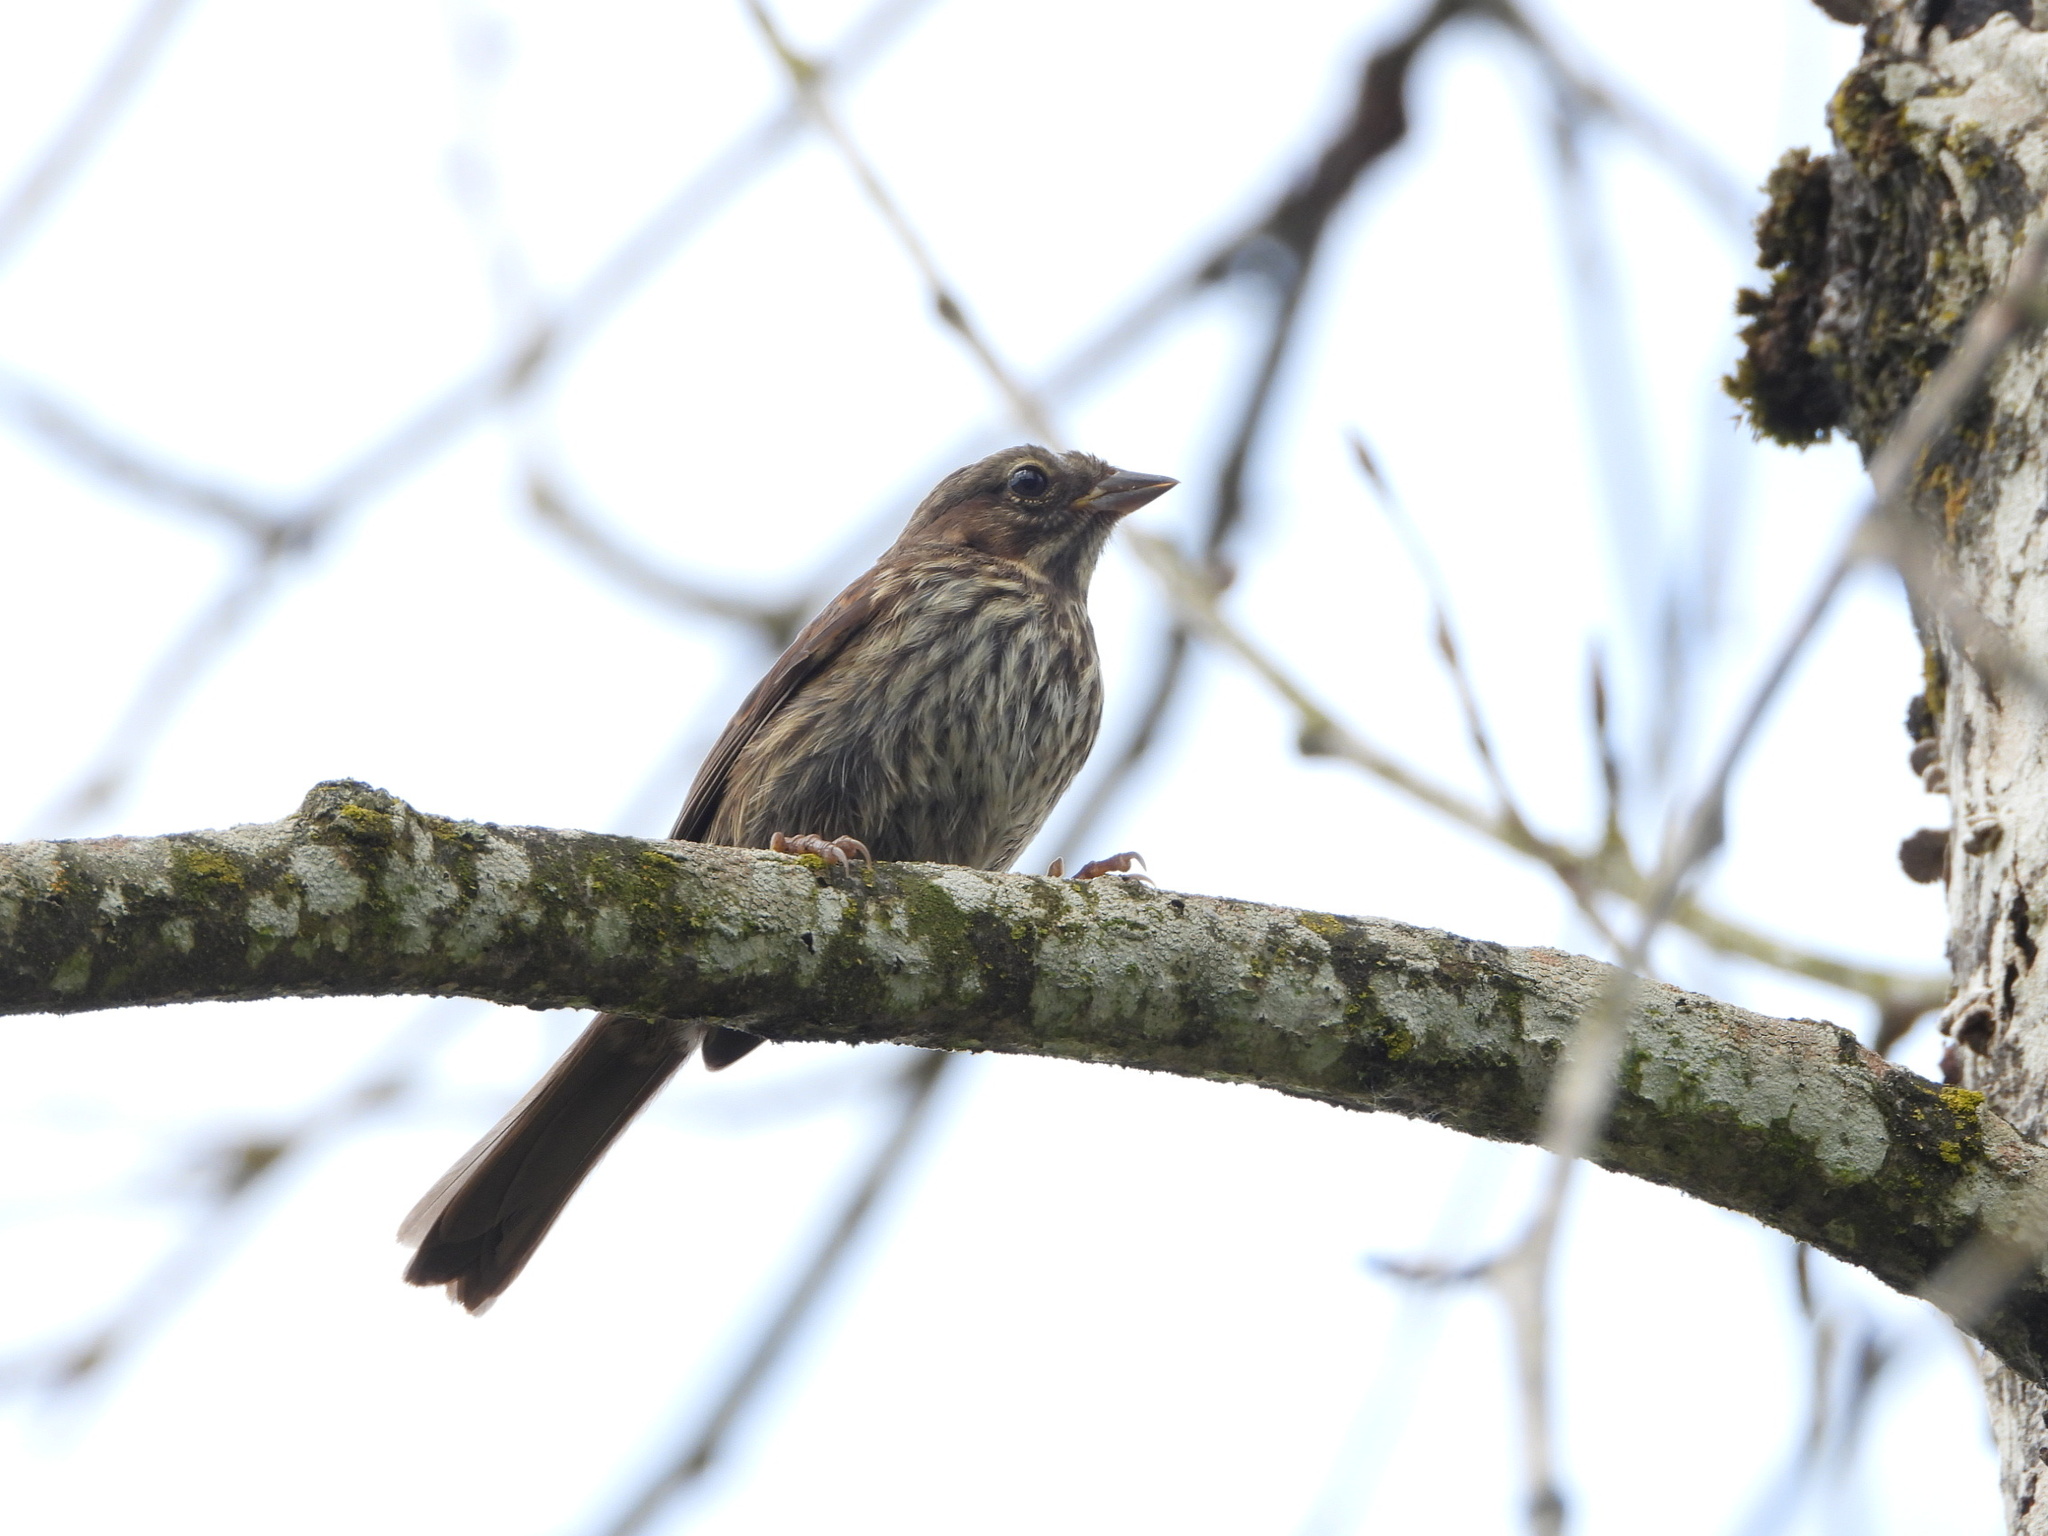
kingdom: Animalia
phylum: Chordata
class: Aves
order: Passeriformes
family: Passerellidae
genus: Melospiza
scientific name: Melospiza melodia
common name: Song sparrow
